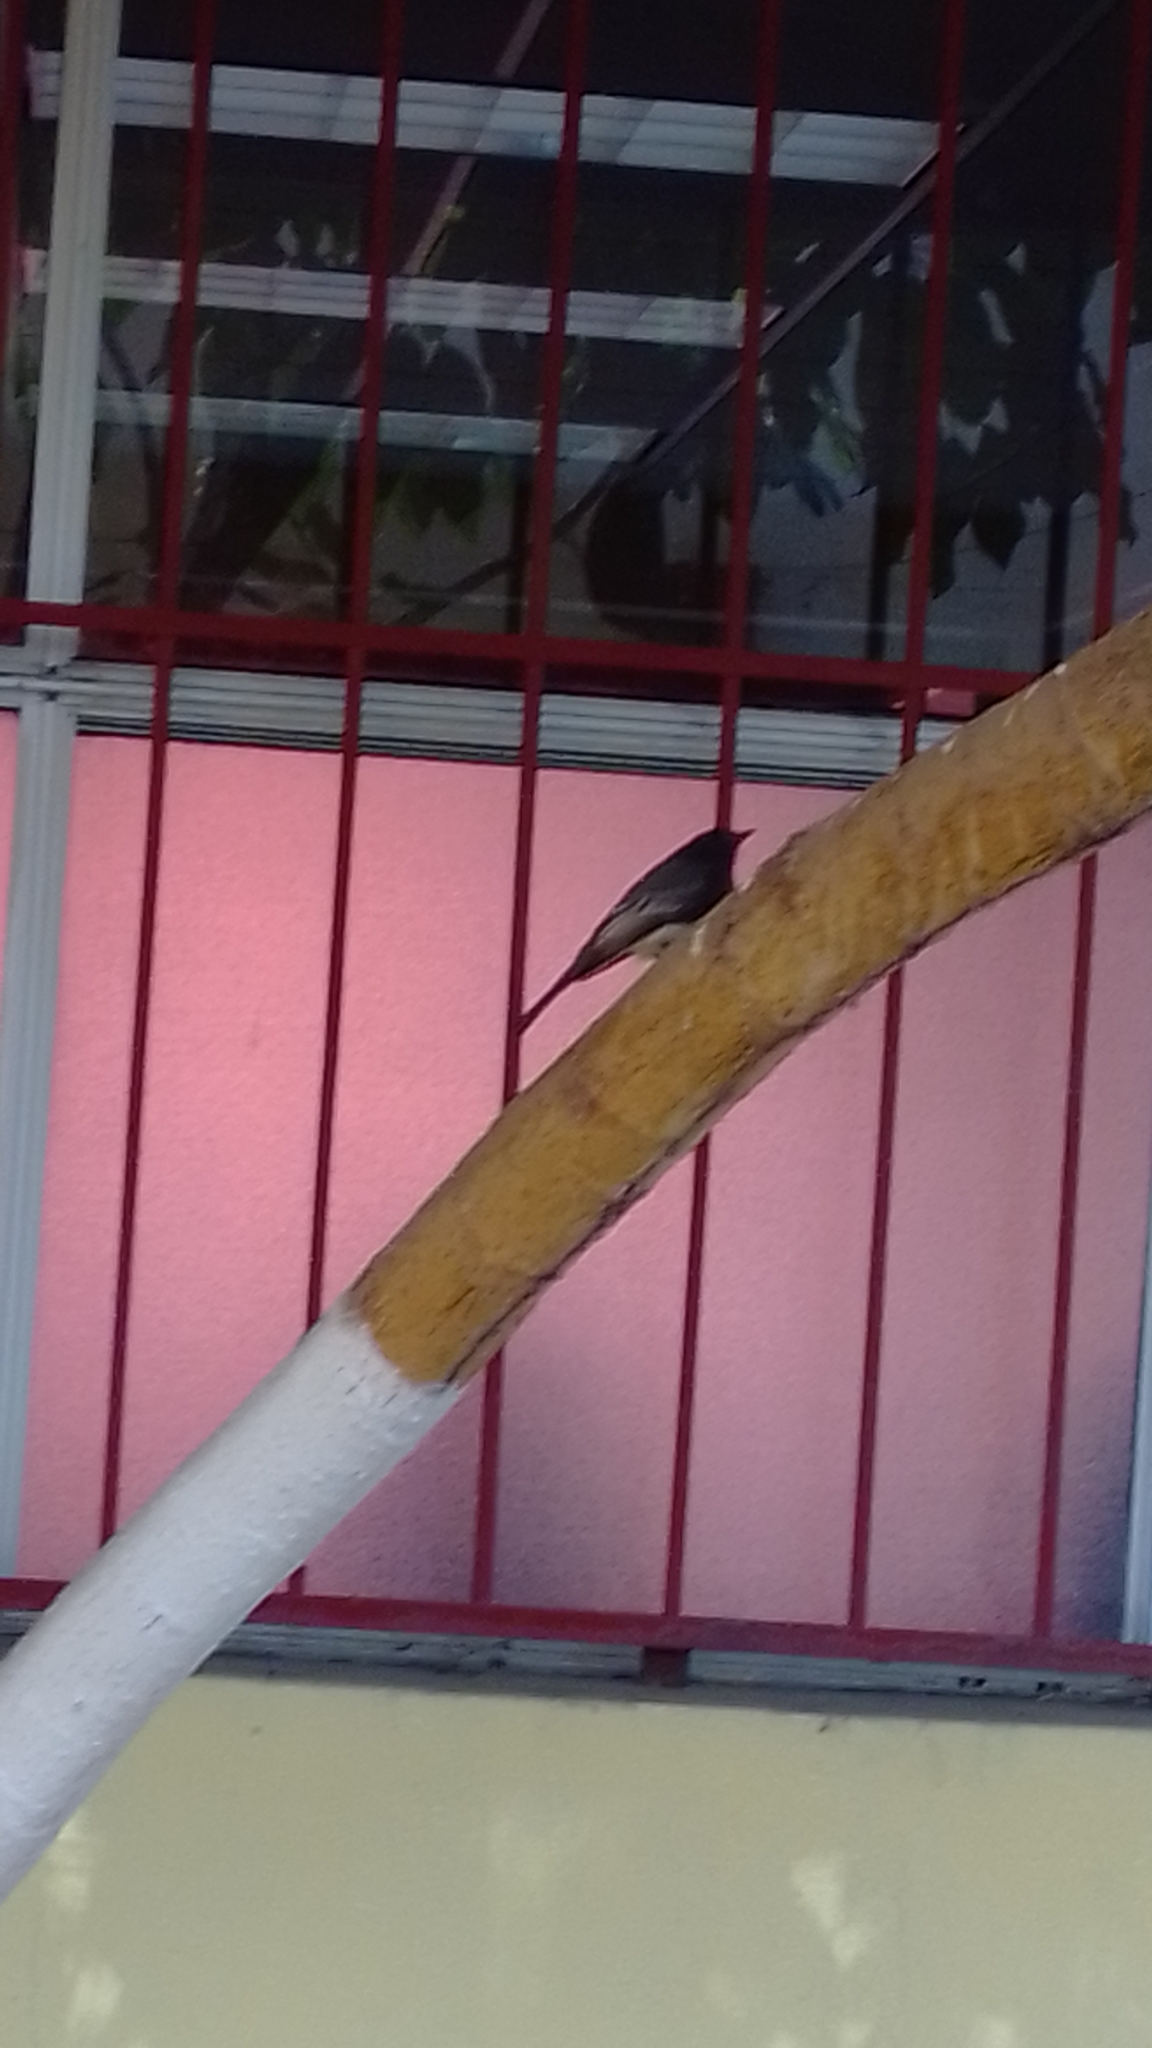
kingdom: Animalia
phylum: Chordata
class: Aves
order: Passeriformes
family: Tyrannidae
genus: Sayornis
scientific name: Sayornis nigricans
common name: Black phoebe
